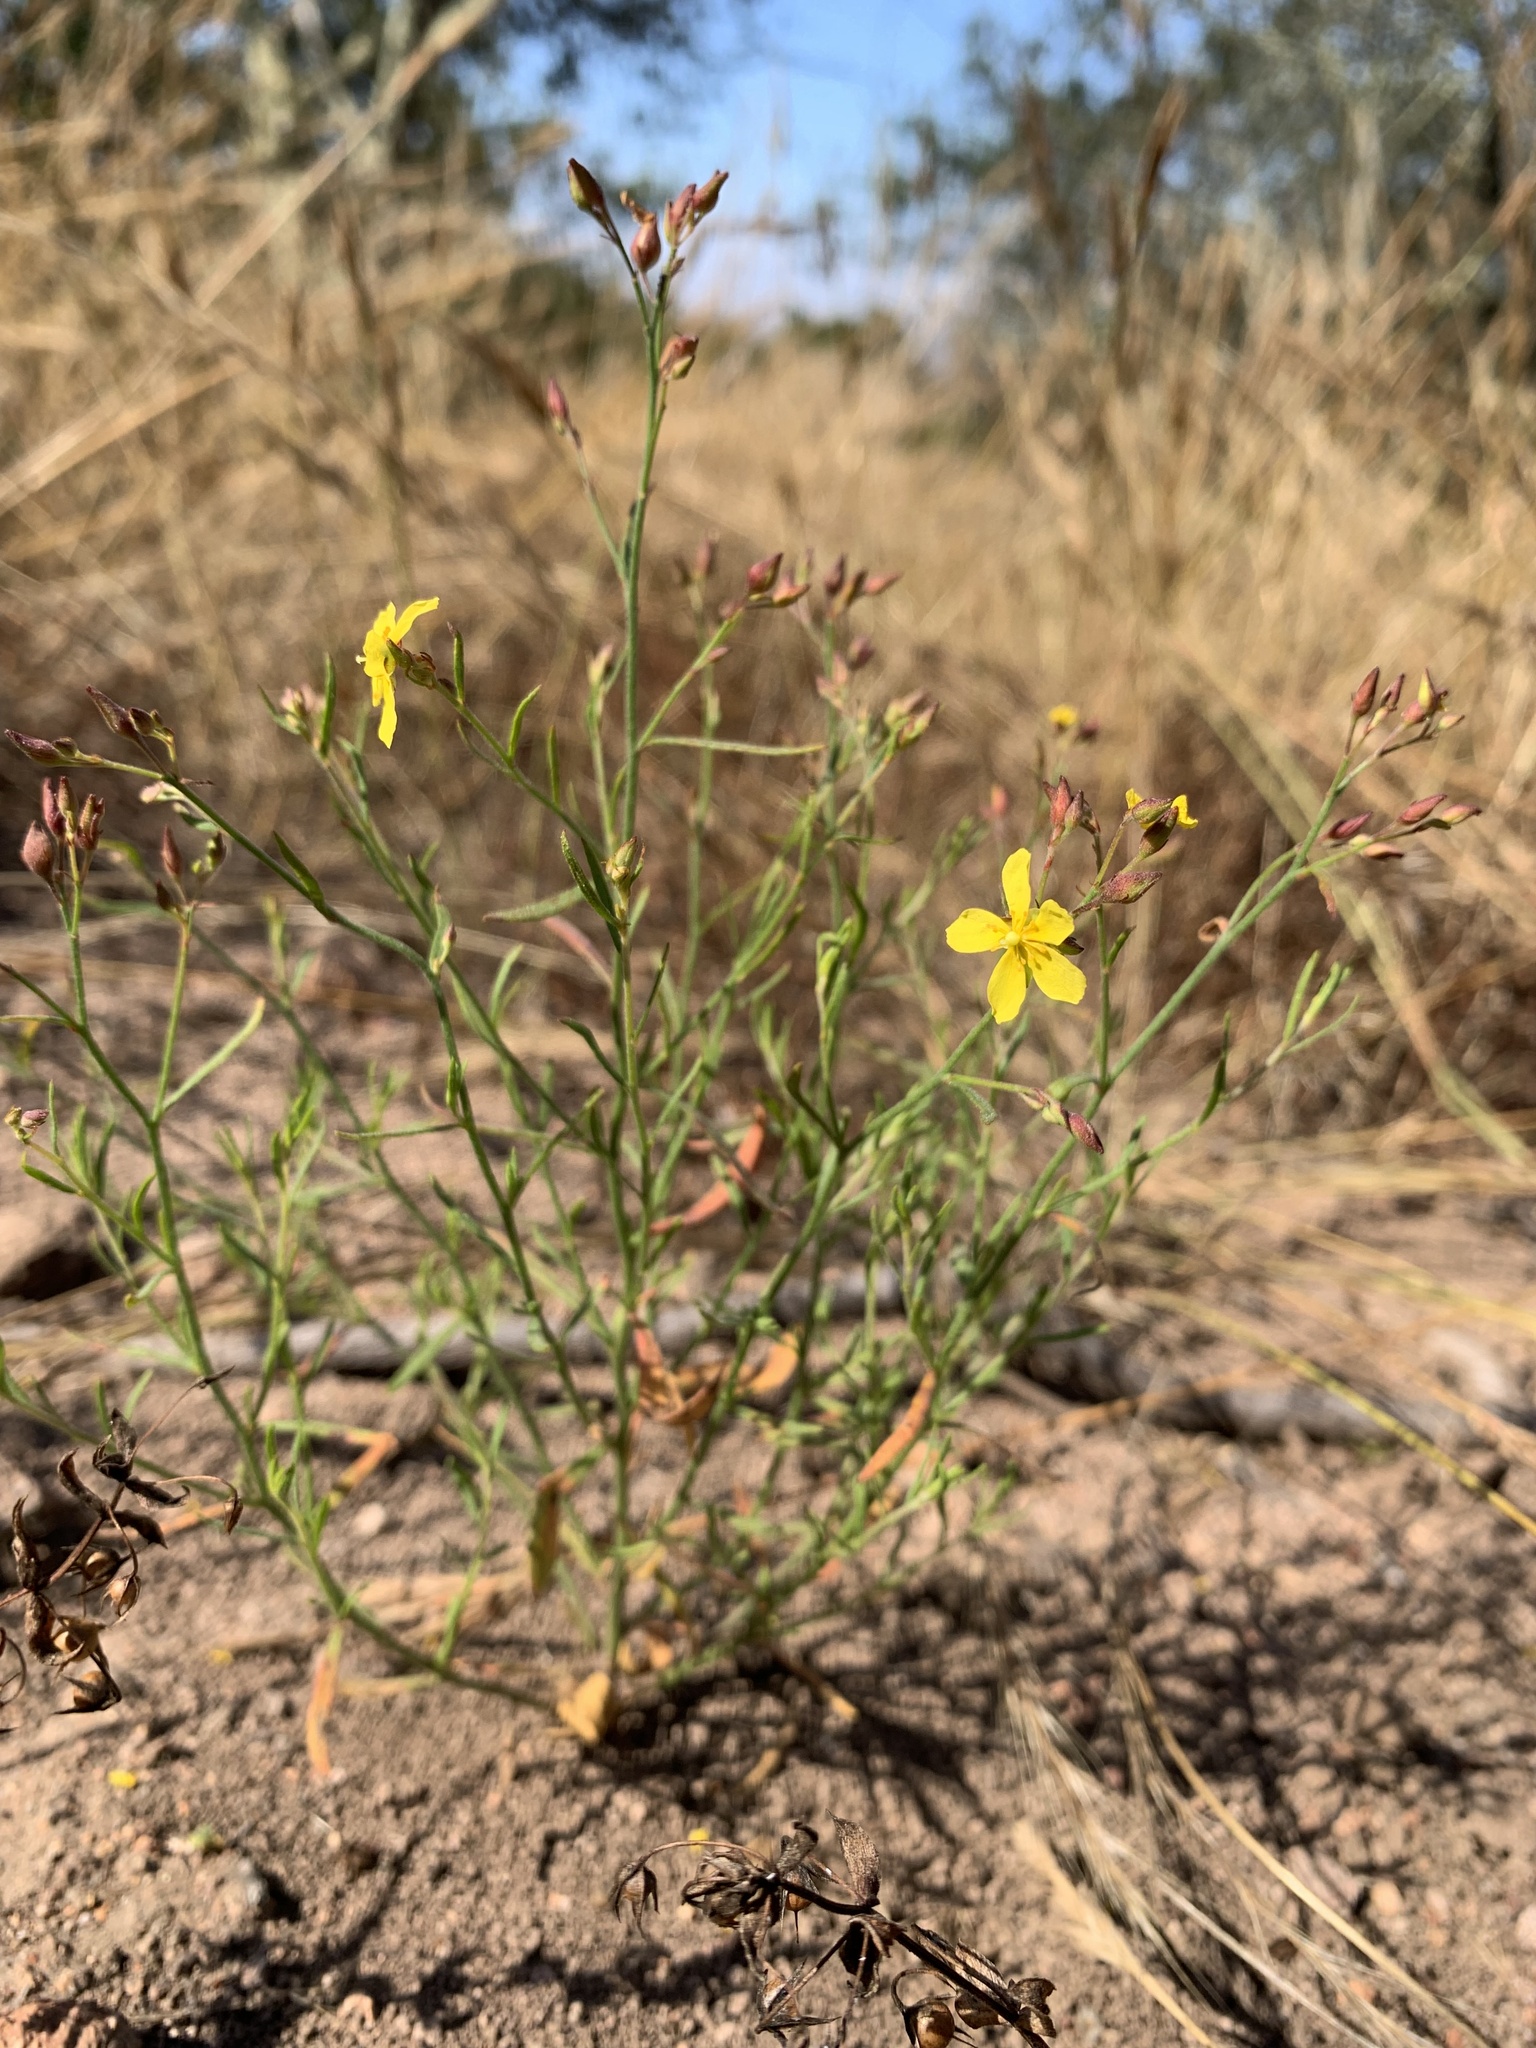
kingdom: Plantae
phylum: Tracheophyta
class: Magnoliopsida
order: Malvales
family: Cistaceae
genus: Crocanthemum
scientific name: Crocanthemum scoparium
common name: Broom-rose
